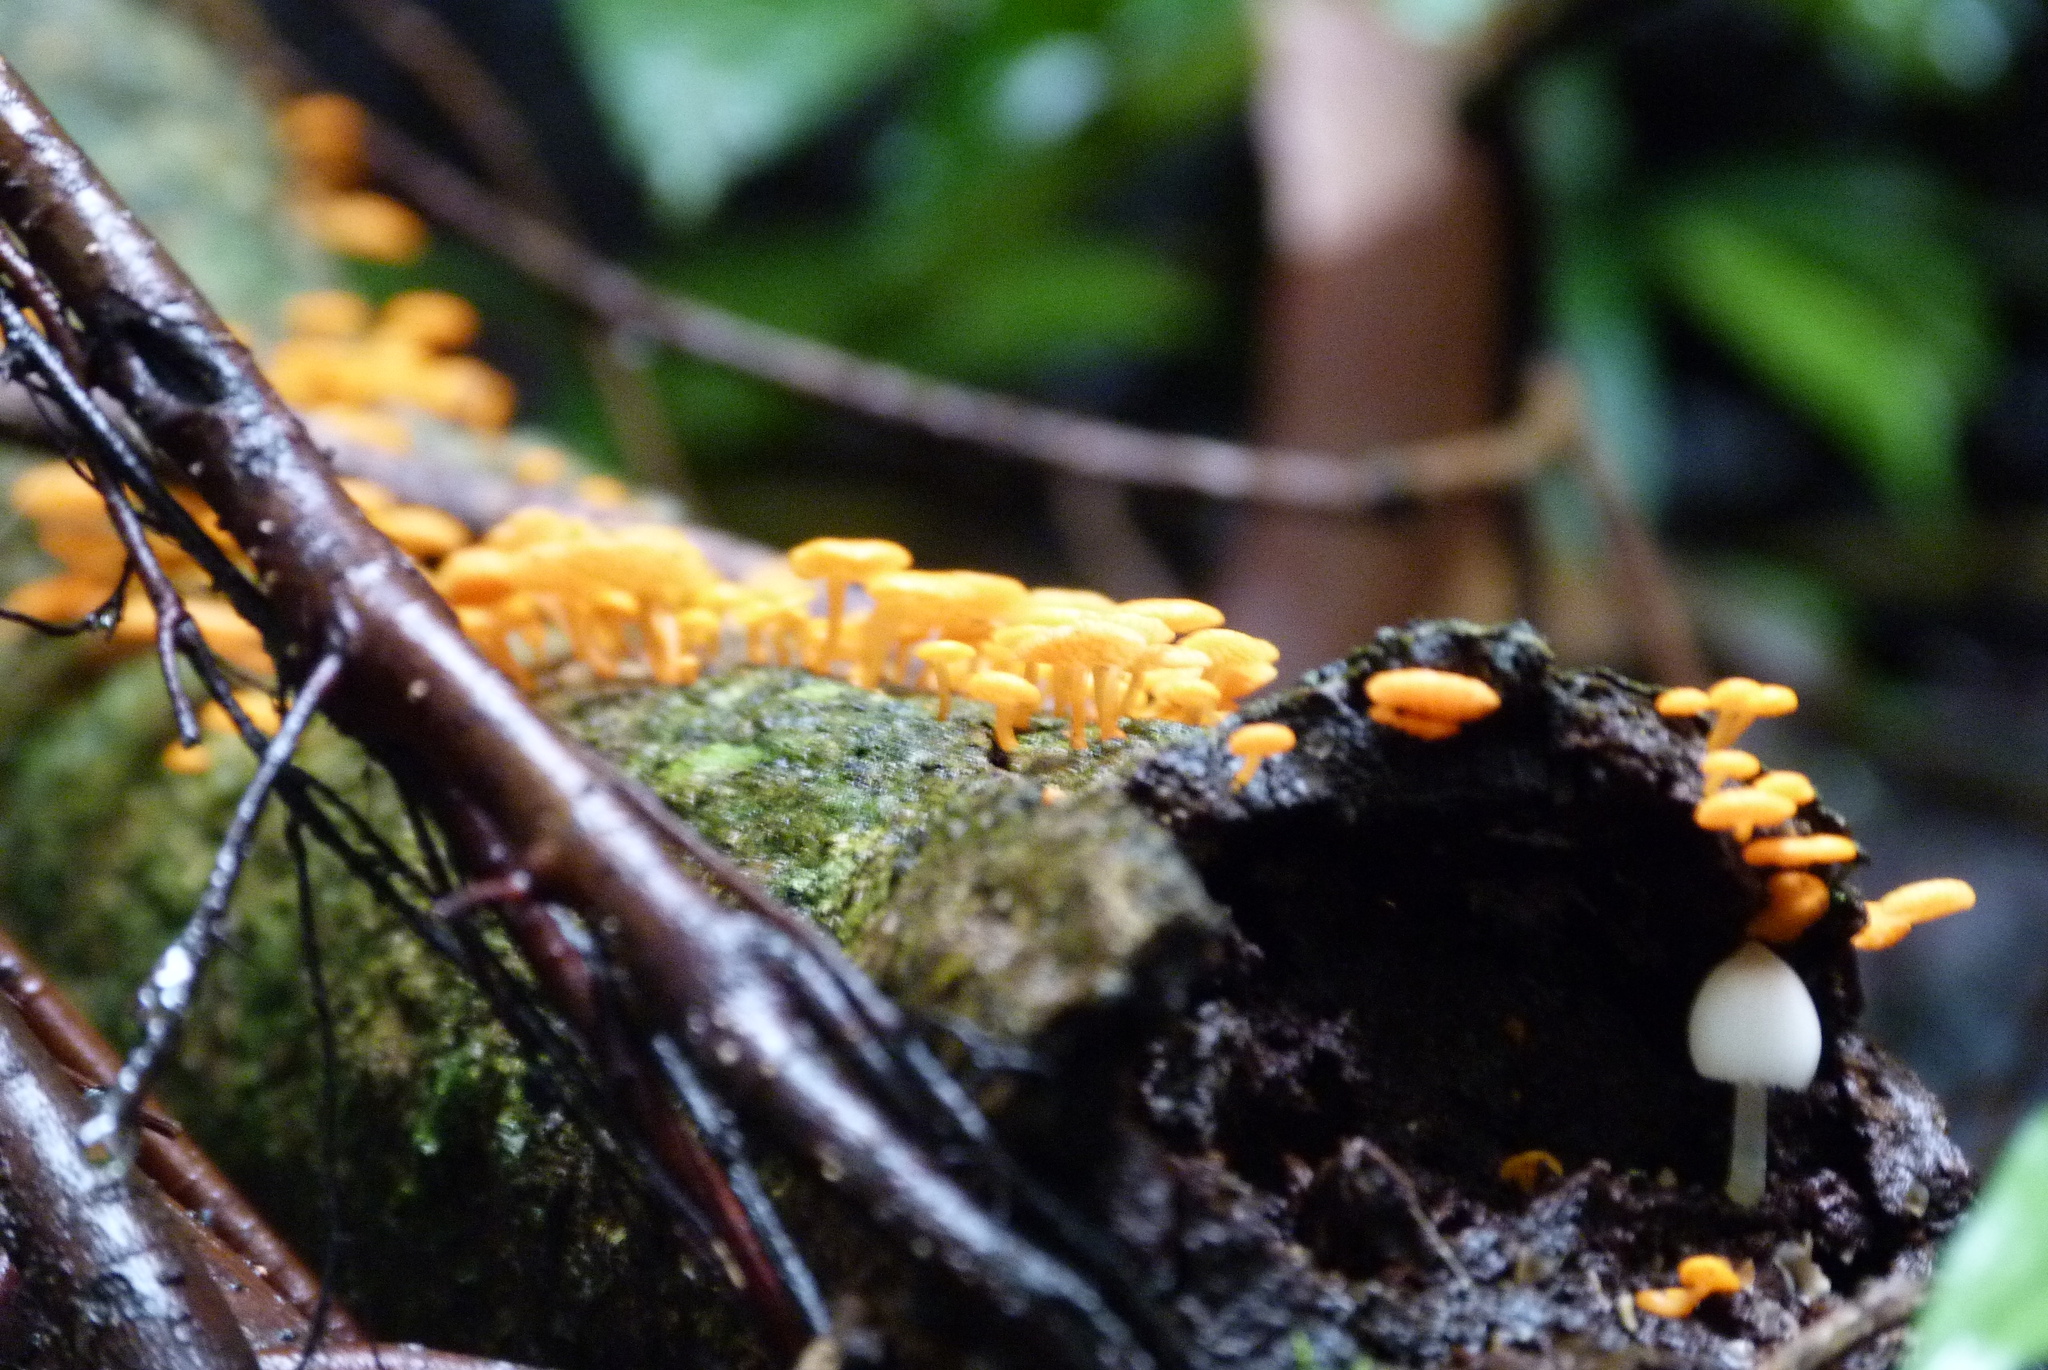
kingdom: Fungi
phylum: Basidiomycota
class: Agaricomycetes
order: Agaricales
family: Mycenaceae
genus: Favolaschia
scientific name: Favolaschia claudopus
